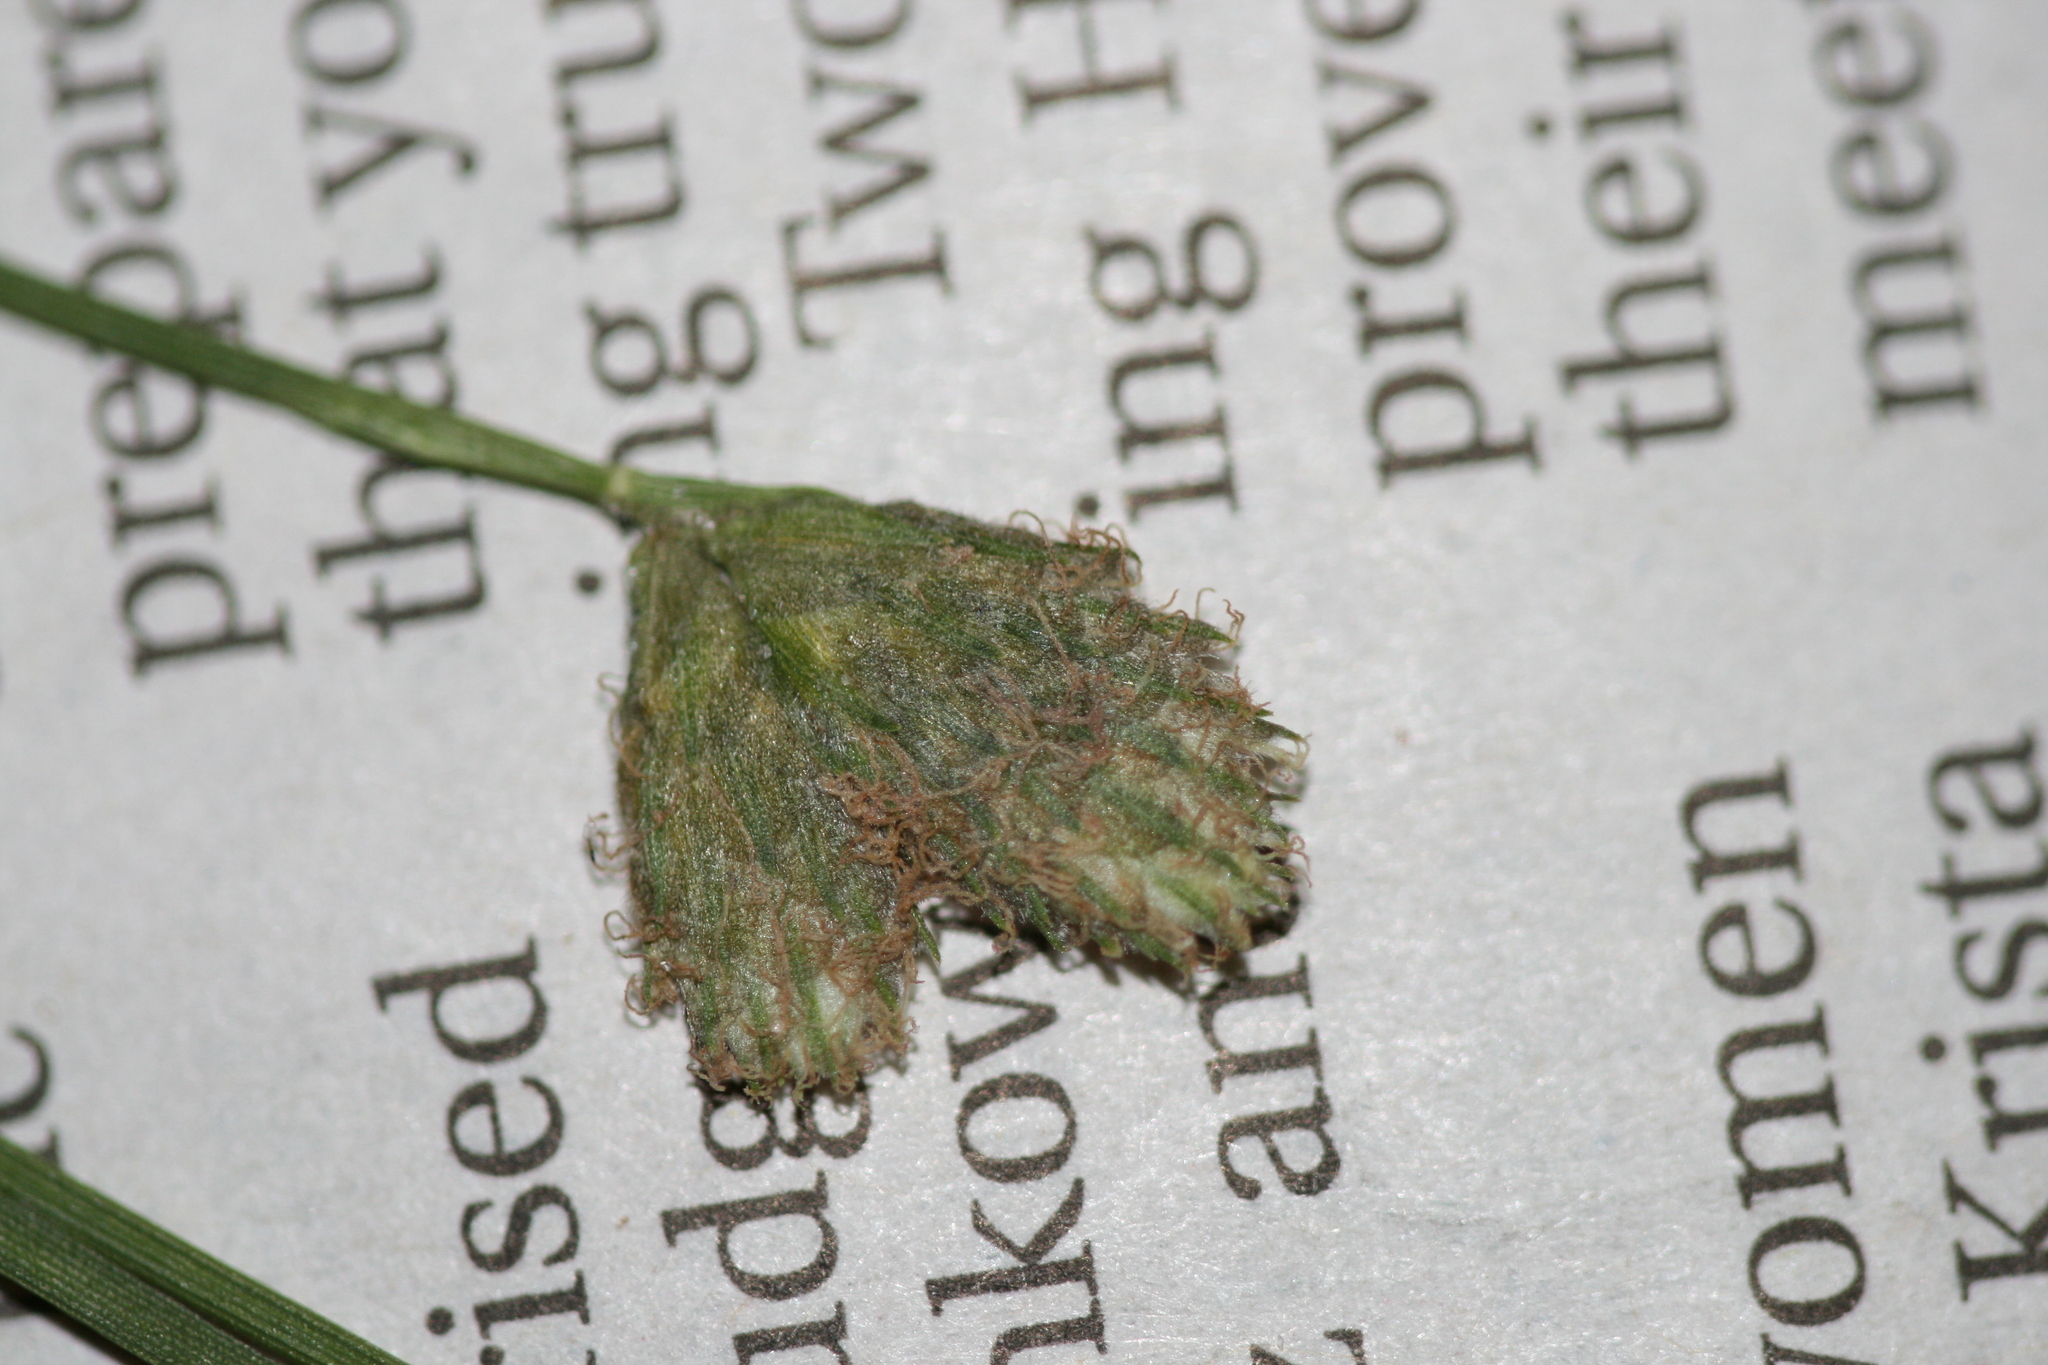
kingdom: Plantae
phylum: Tracheophyta
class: Liliopsida
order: Poales
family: Cyperaceae
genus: Fuirena
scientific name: Fuirena scirpoidea
